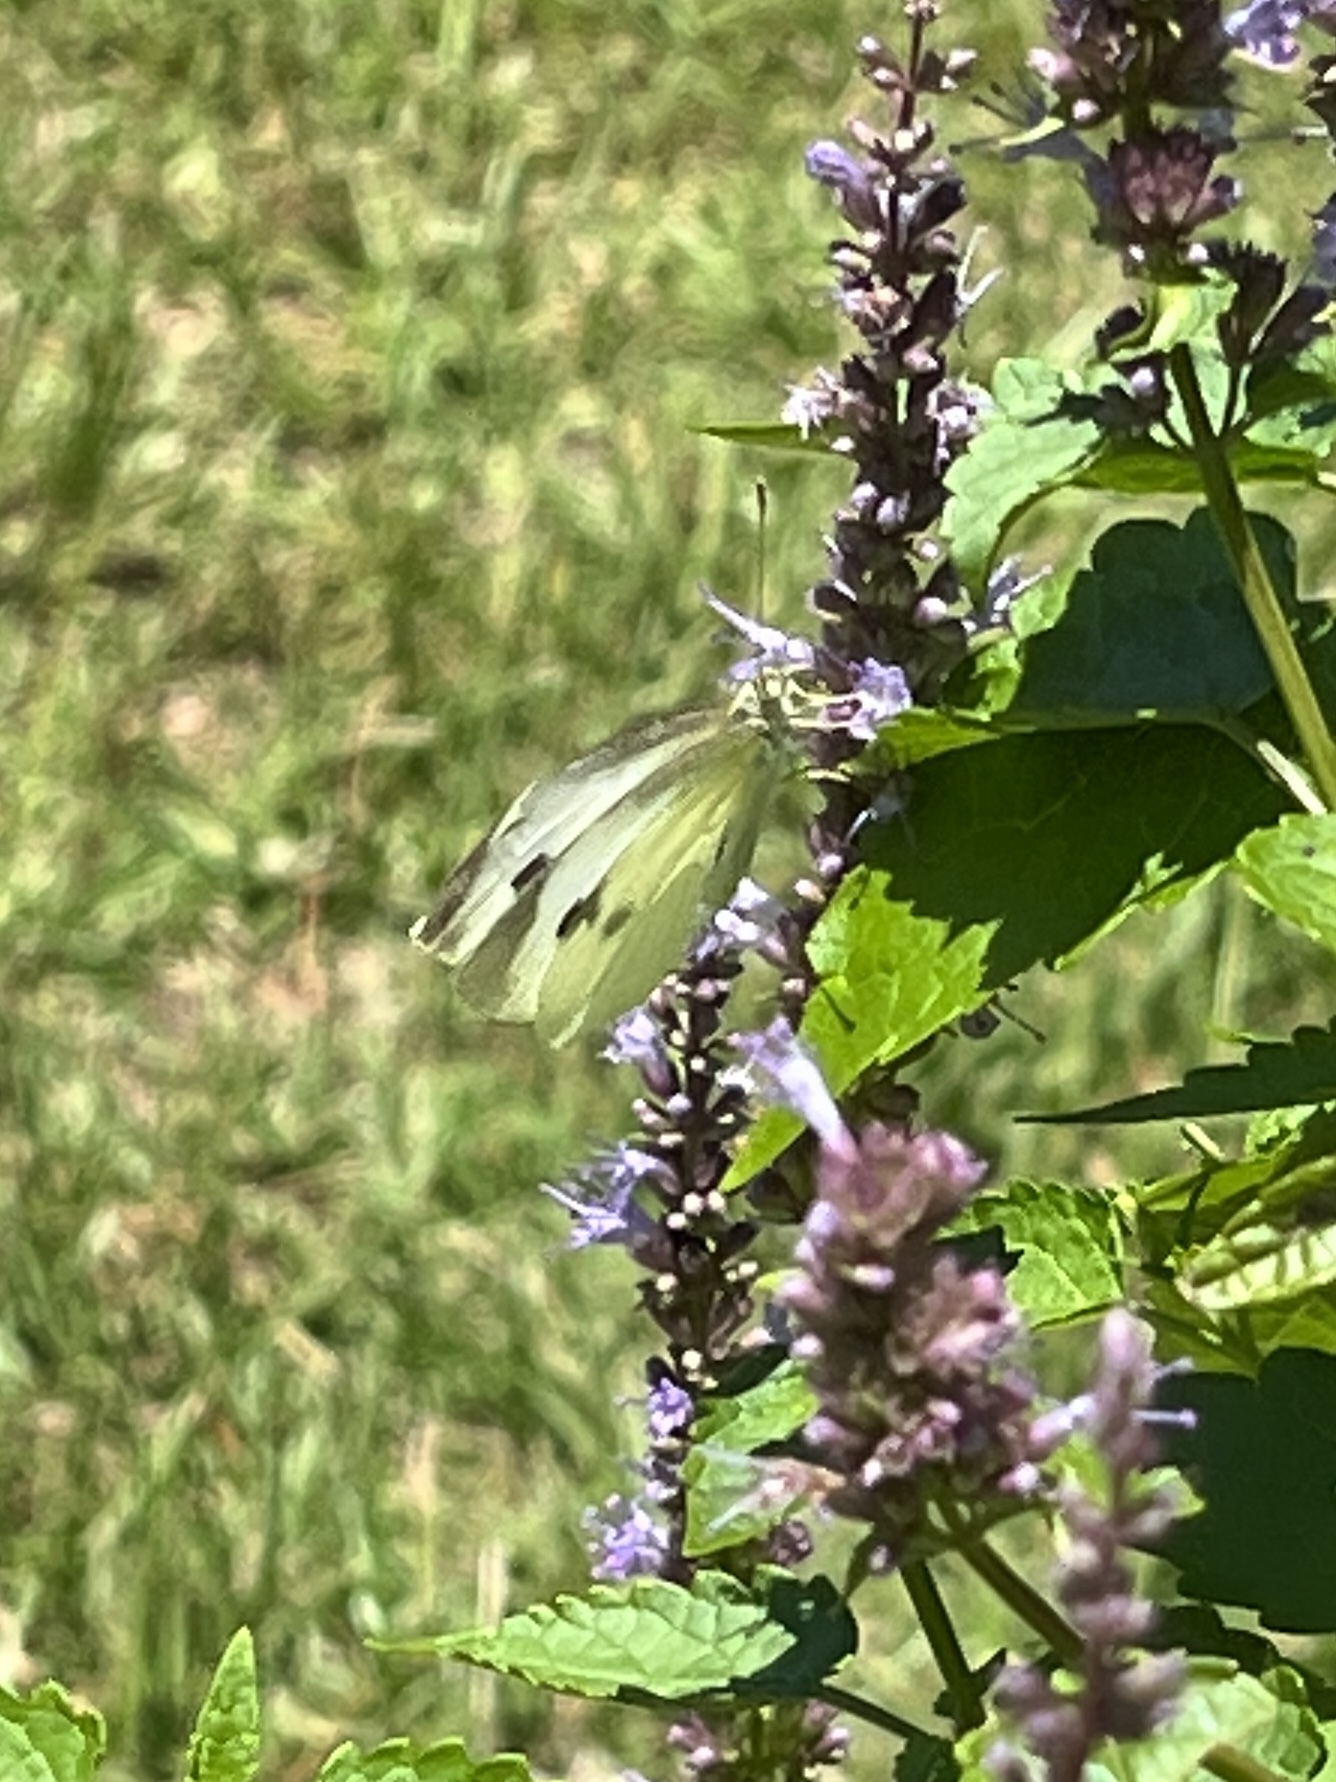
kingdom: Animalia
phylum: Arthropoda
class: Insecta
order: Lepidoptera
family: Pieridae
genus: Pieris
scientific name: Pieris rapae
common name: Small white
